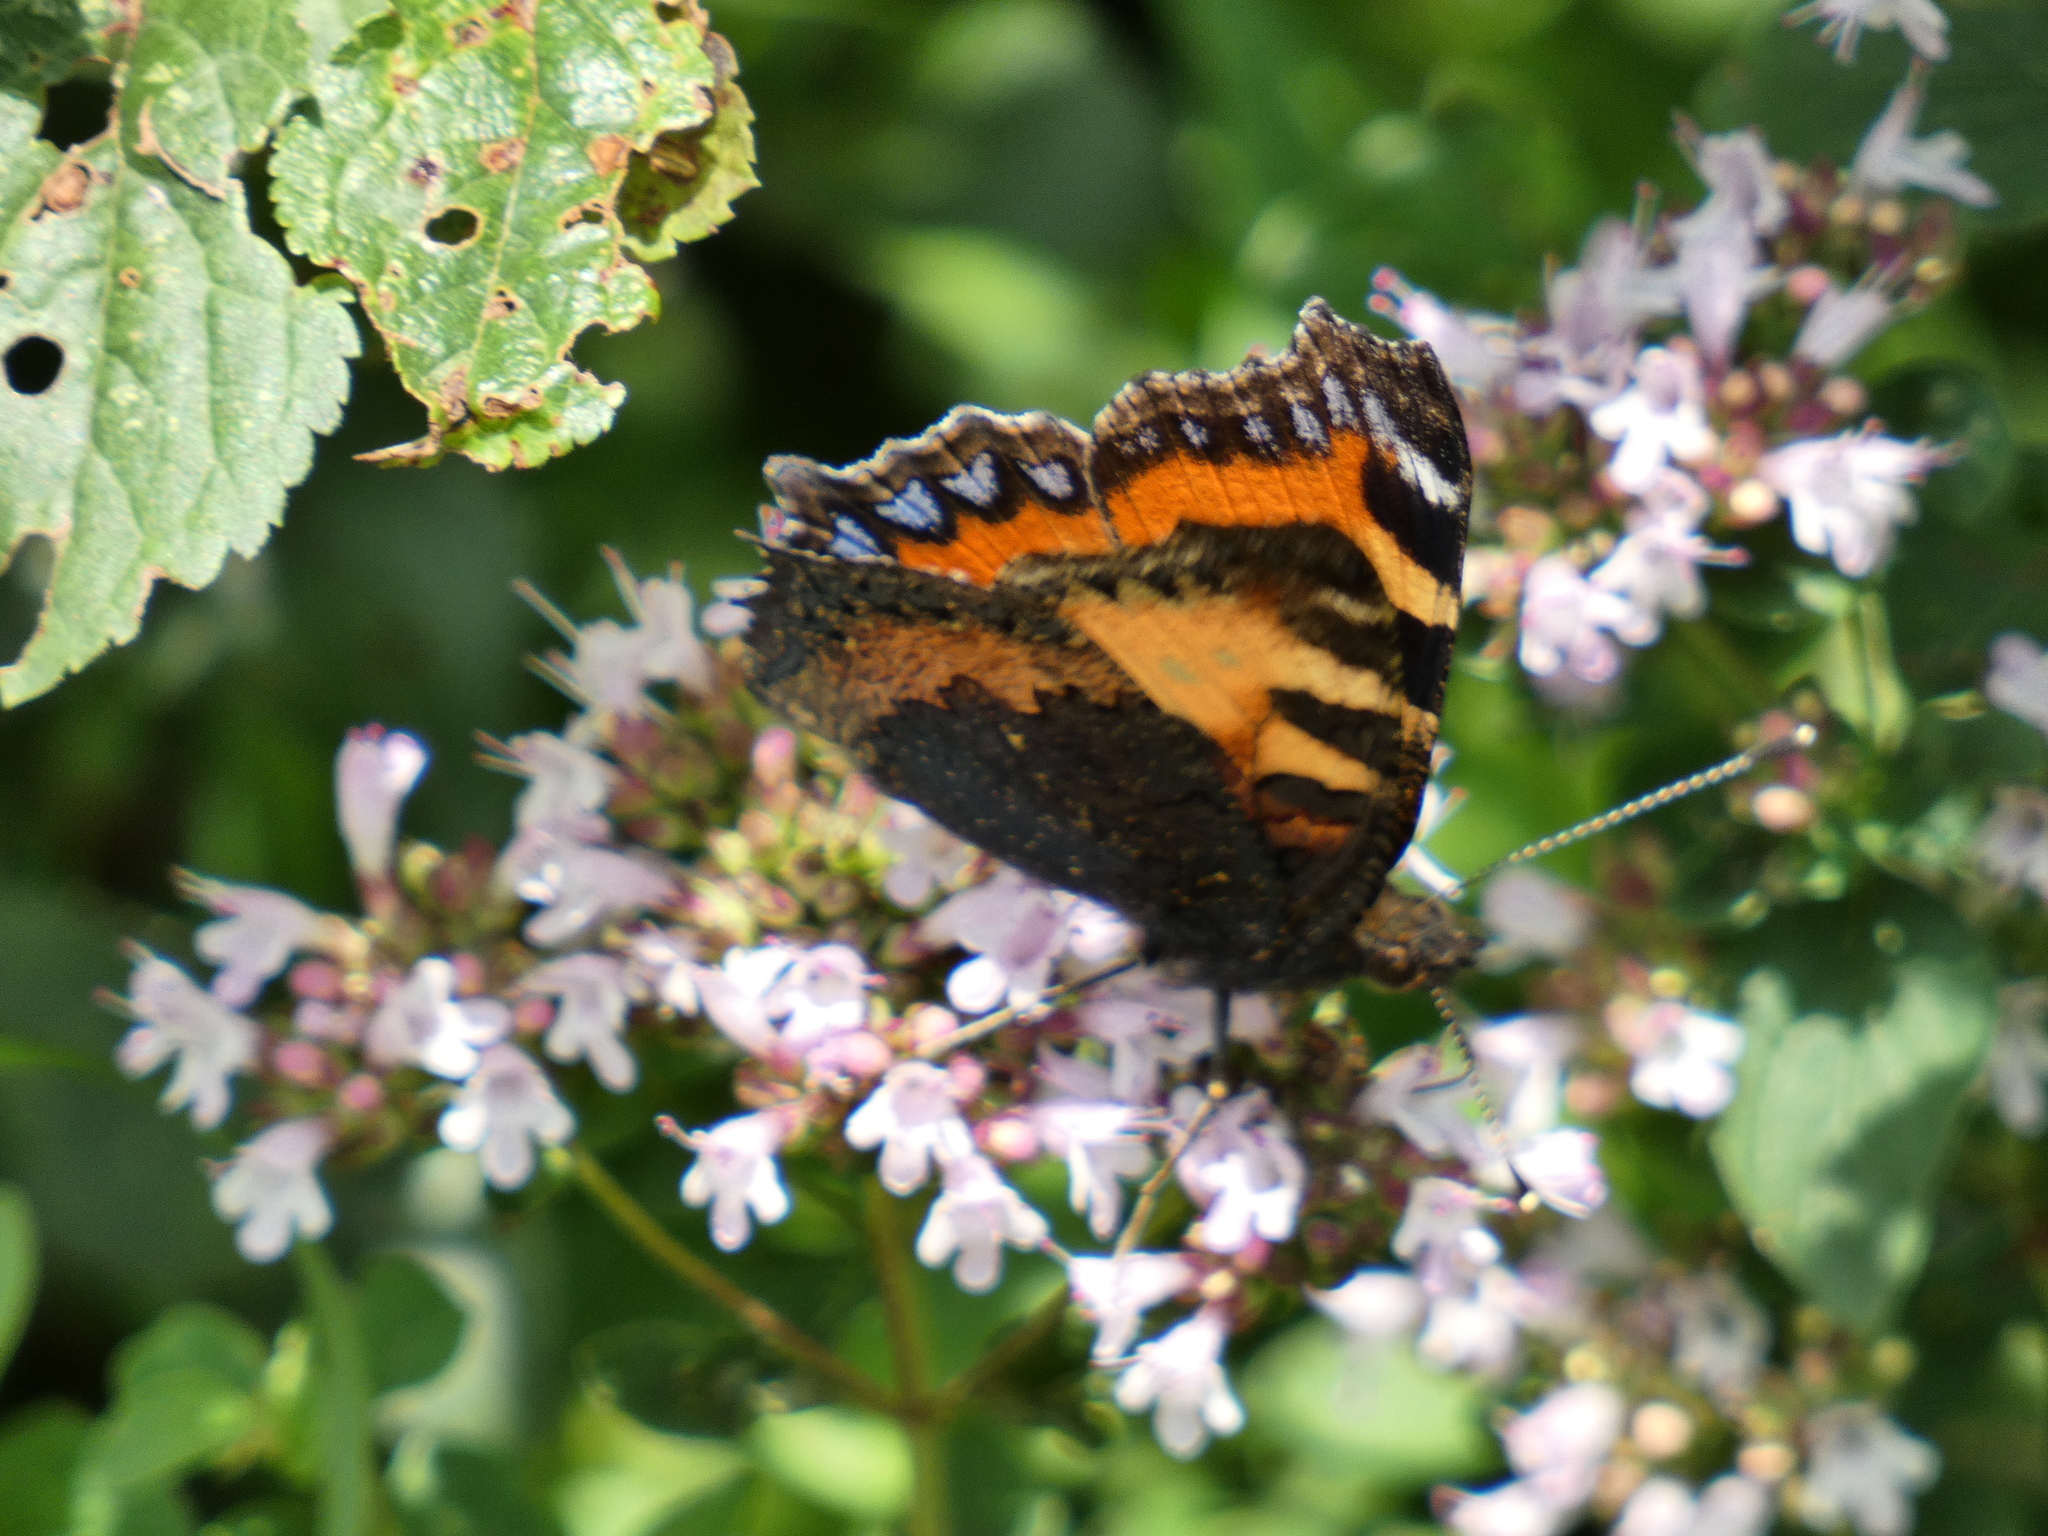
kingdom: Animalia
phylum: Arthropoda
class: Insecta
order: Lepidoptera
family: Nymphalidae
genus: Aglais
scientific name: Aglais urticae
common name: Small tortoiseshell
